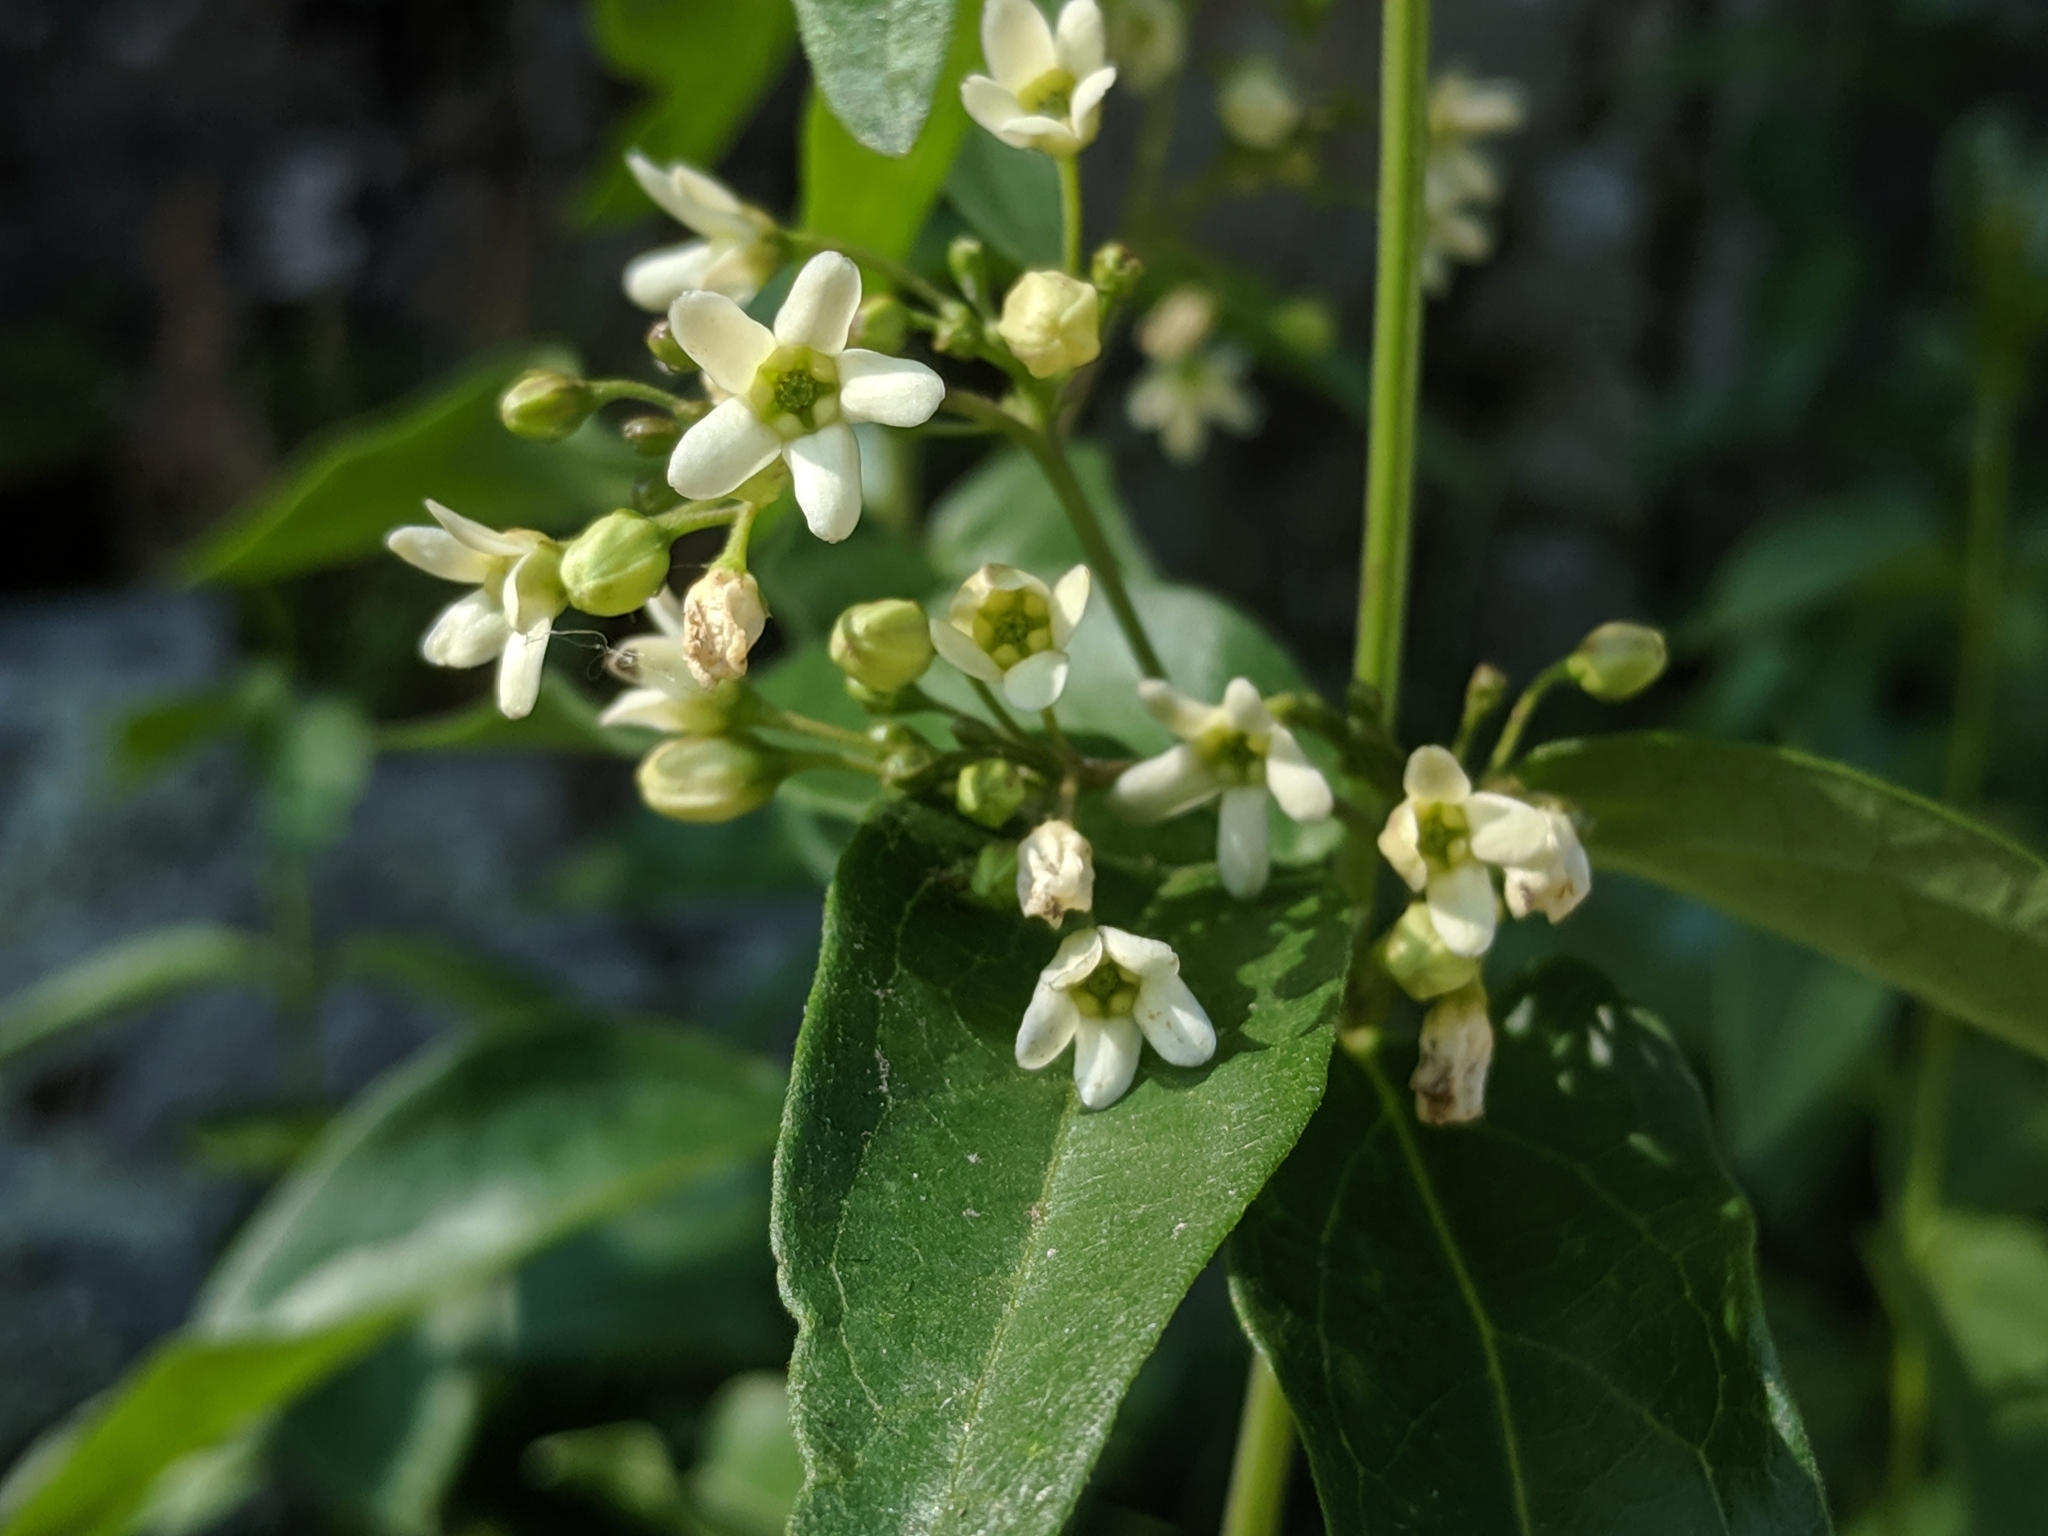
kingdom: Plantae
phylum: Tracheophyta
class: Magnoliopsida
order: Gentianales
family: Apocynaceae
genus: Vincetoxicum
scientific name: Vincetoxicum hirundinaria
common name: White swallowwort
